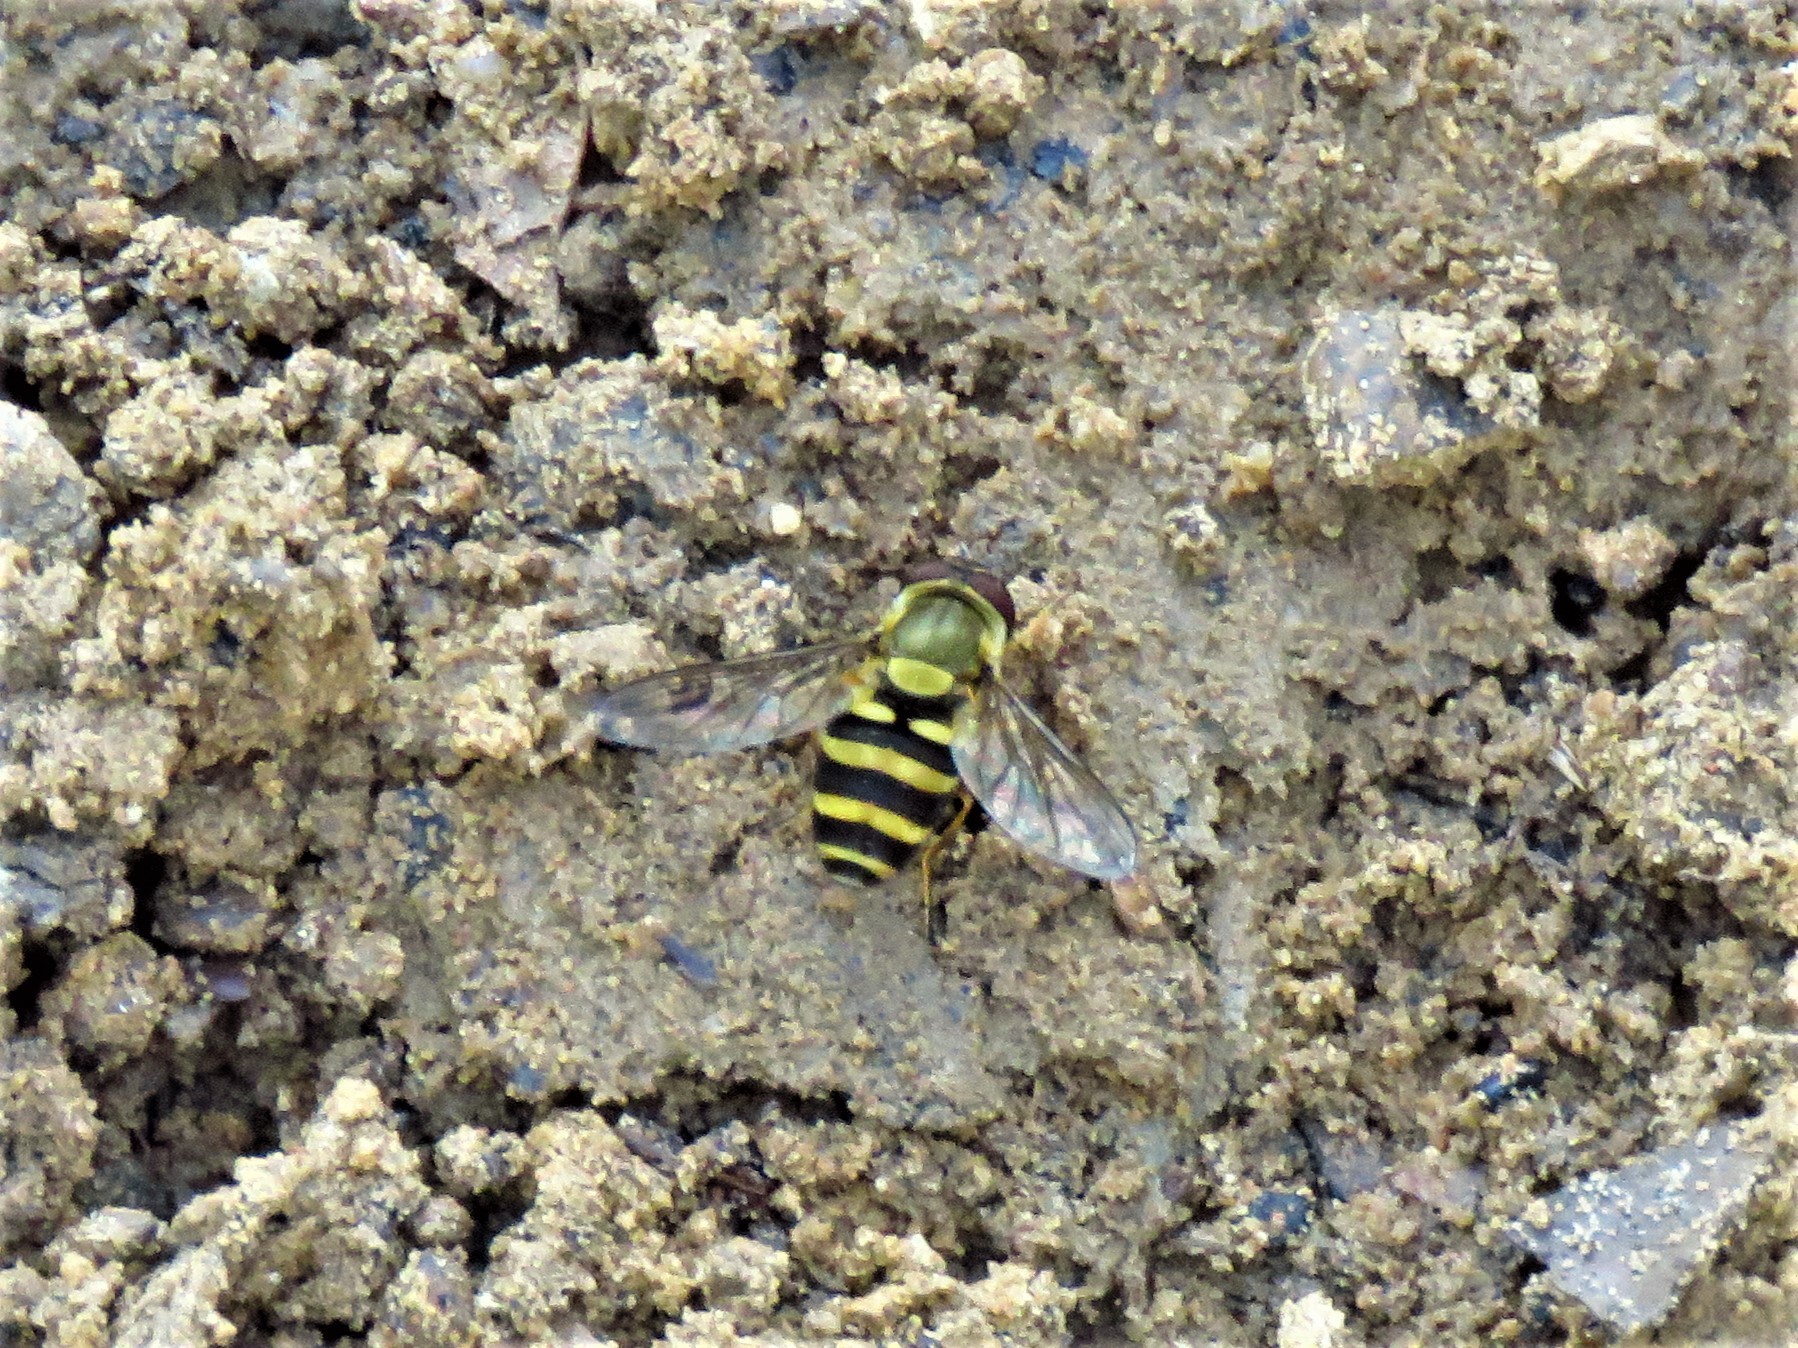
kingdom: Animalia
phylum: Arthropoda
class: Insecta
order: Diptera
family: Syrphidae
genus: Syrphus
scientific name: Syrphus
